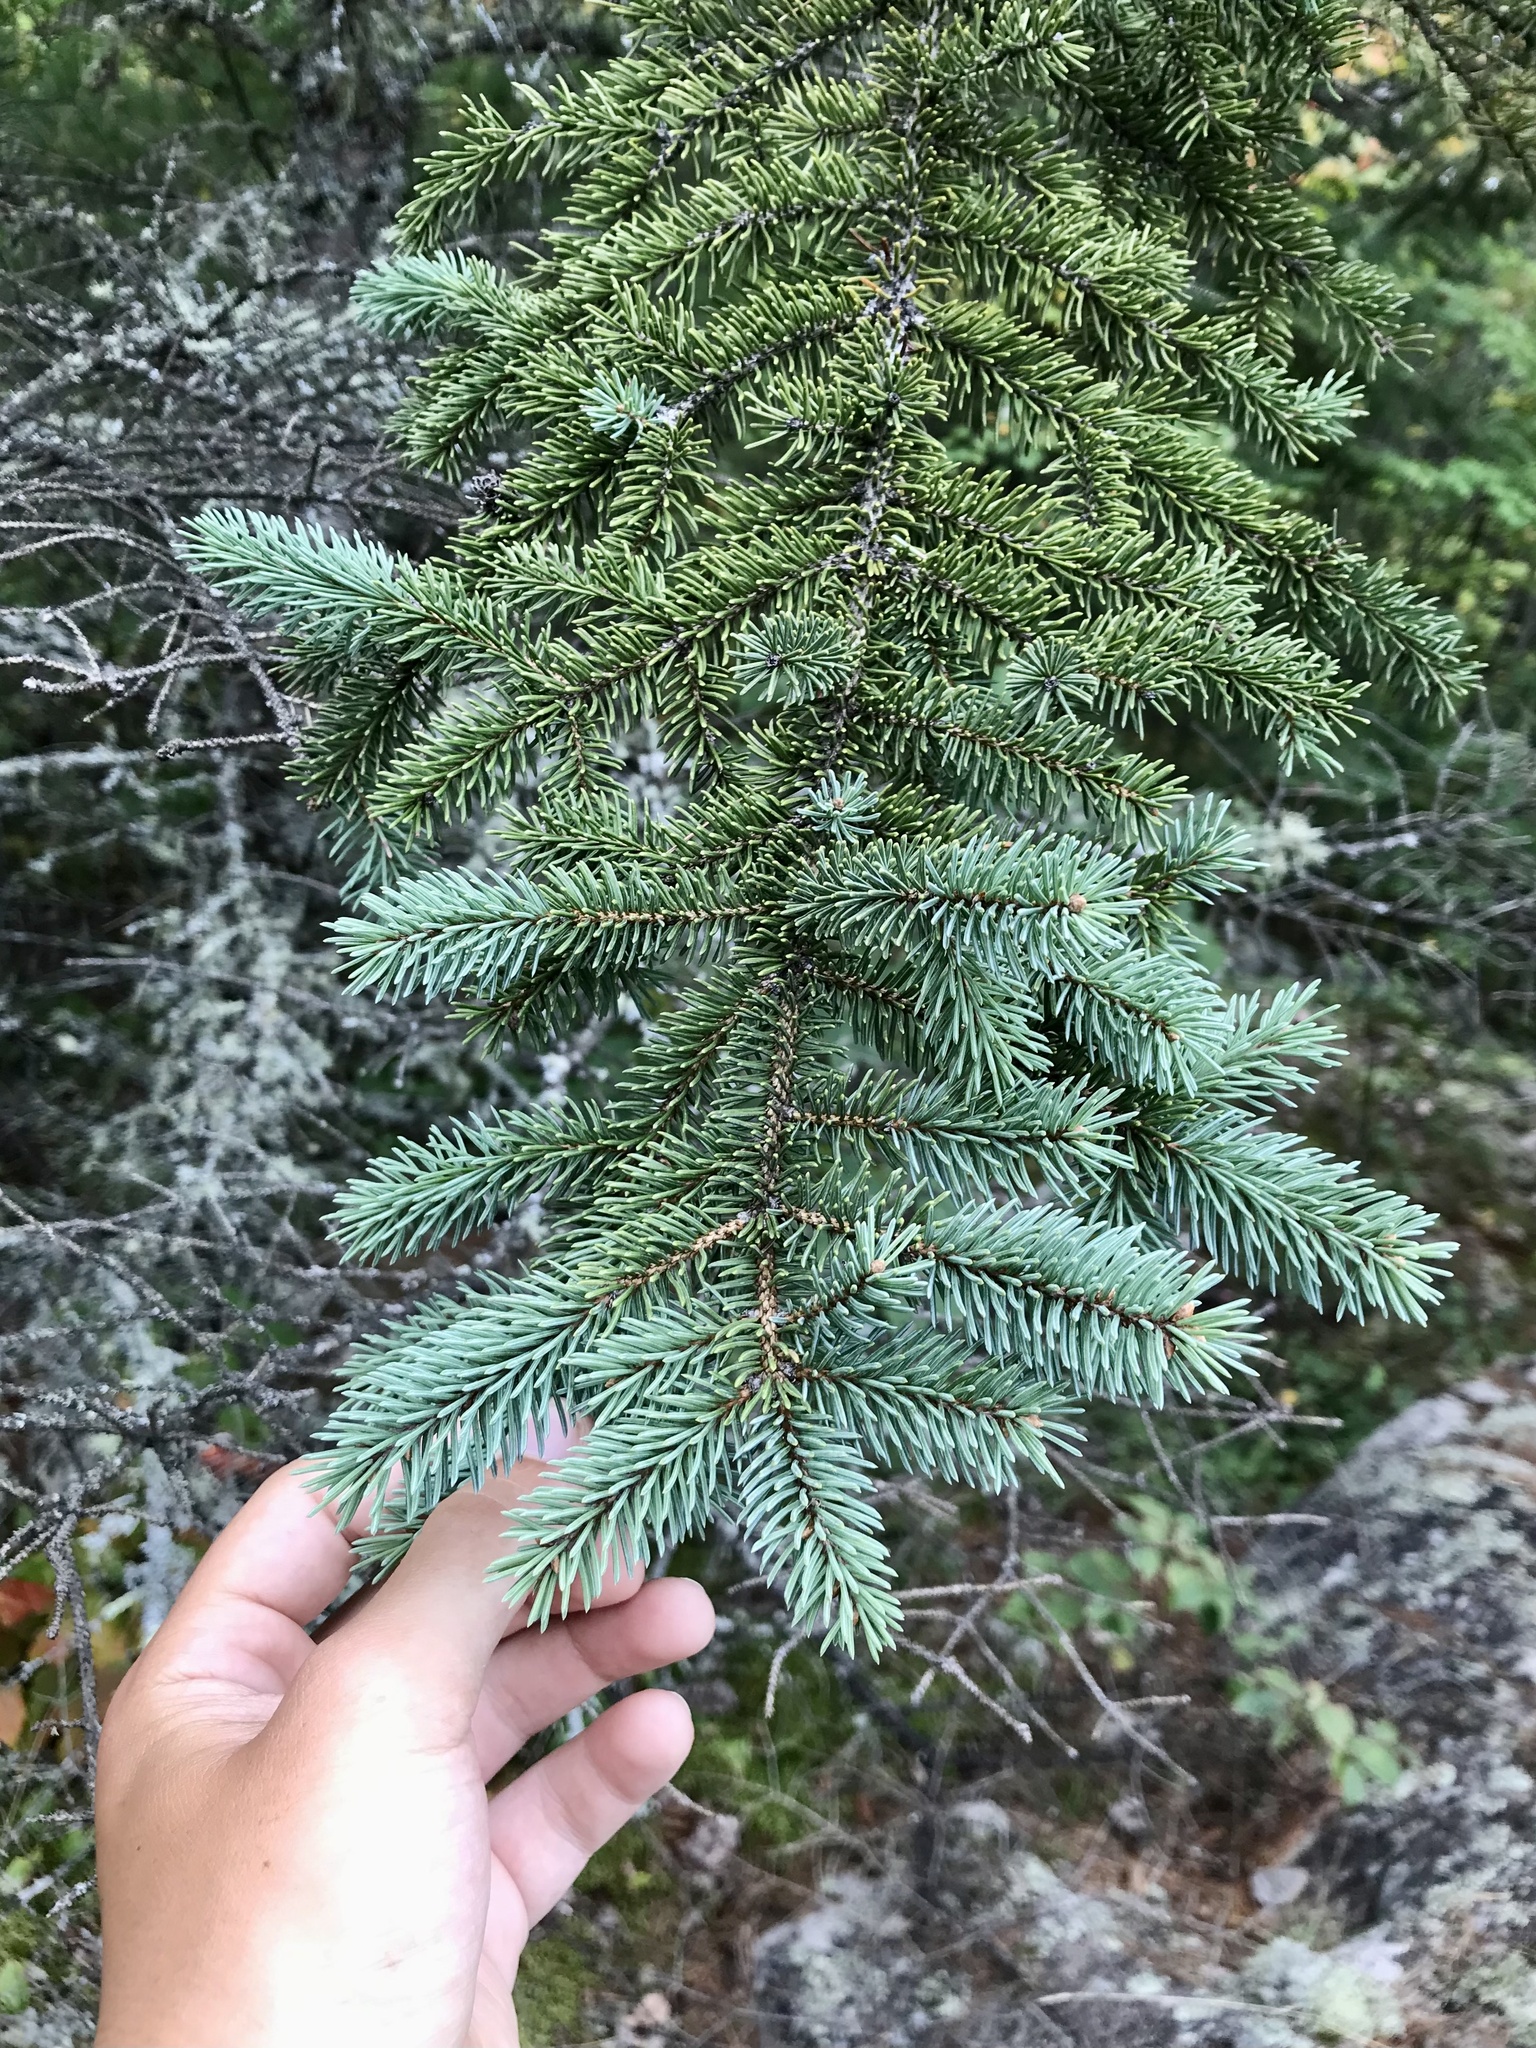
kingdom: Plantae
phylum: Tracheophyta
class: Pinopsida
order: Pinales
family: Pinaceae
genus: Picea
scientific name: Picea glauca
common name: White spruce
